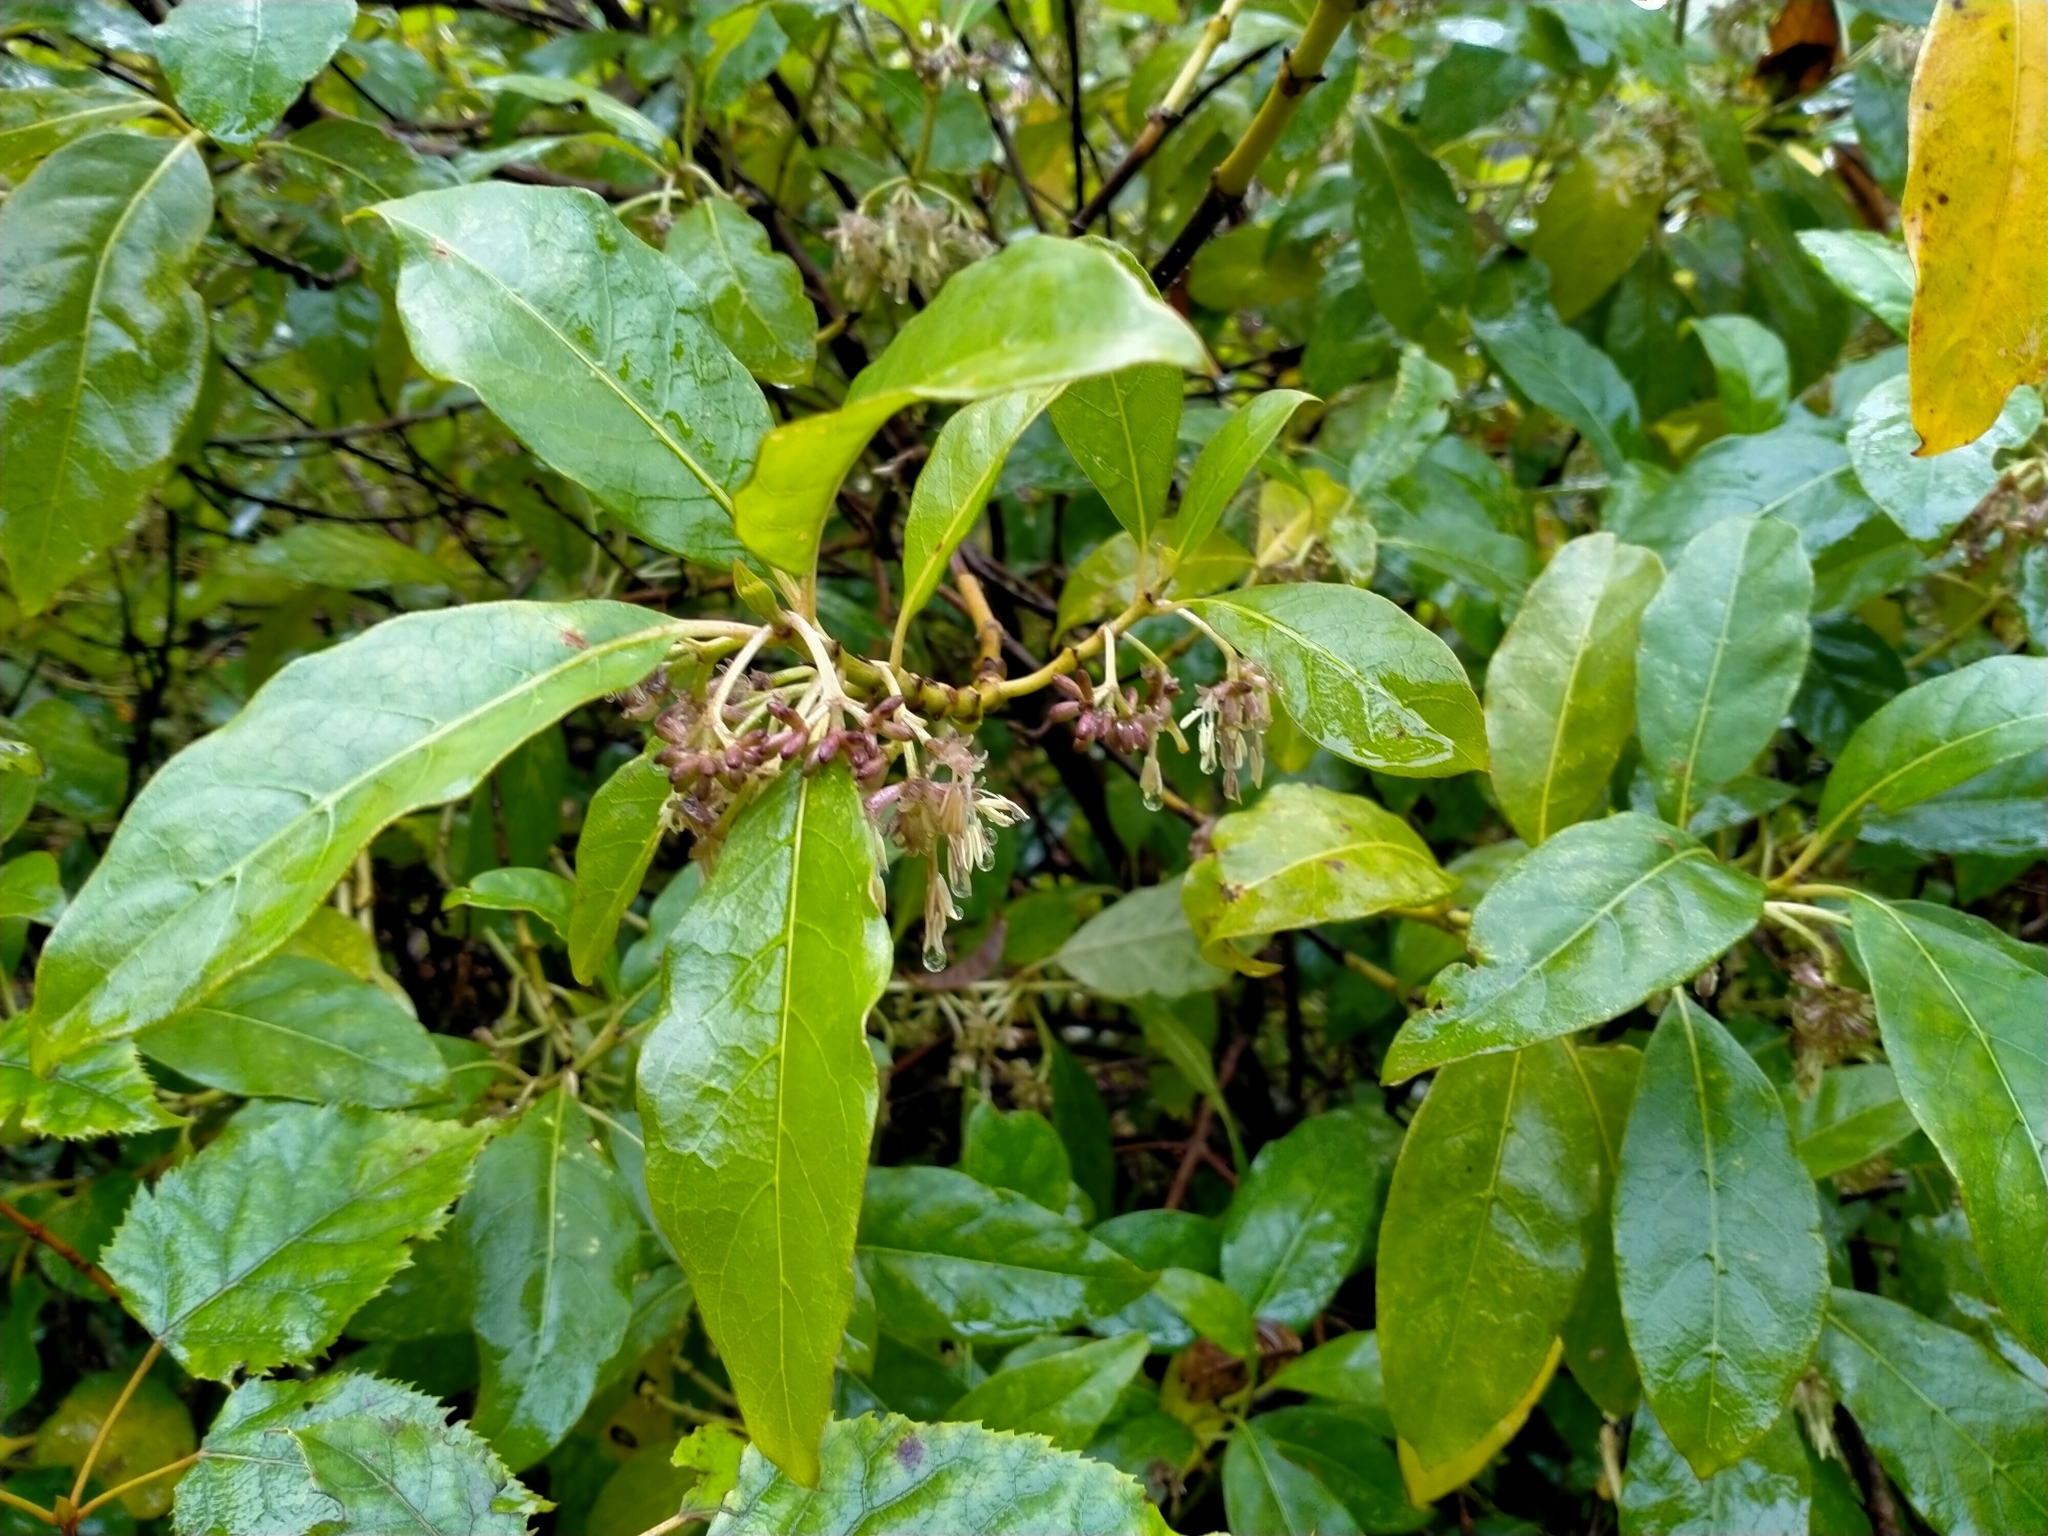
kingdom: Plantae
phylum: Tracheophyta
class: Magnoliopsida
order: Gentianales
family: Rubiaceae
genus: Coprosma
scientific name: Coprosma autumnalis
